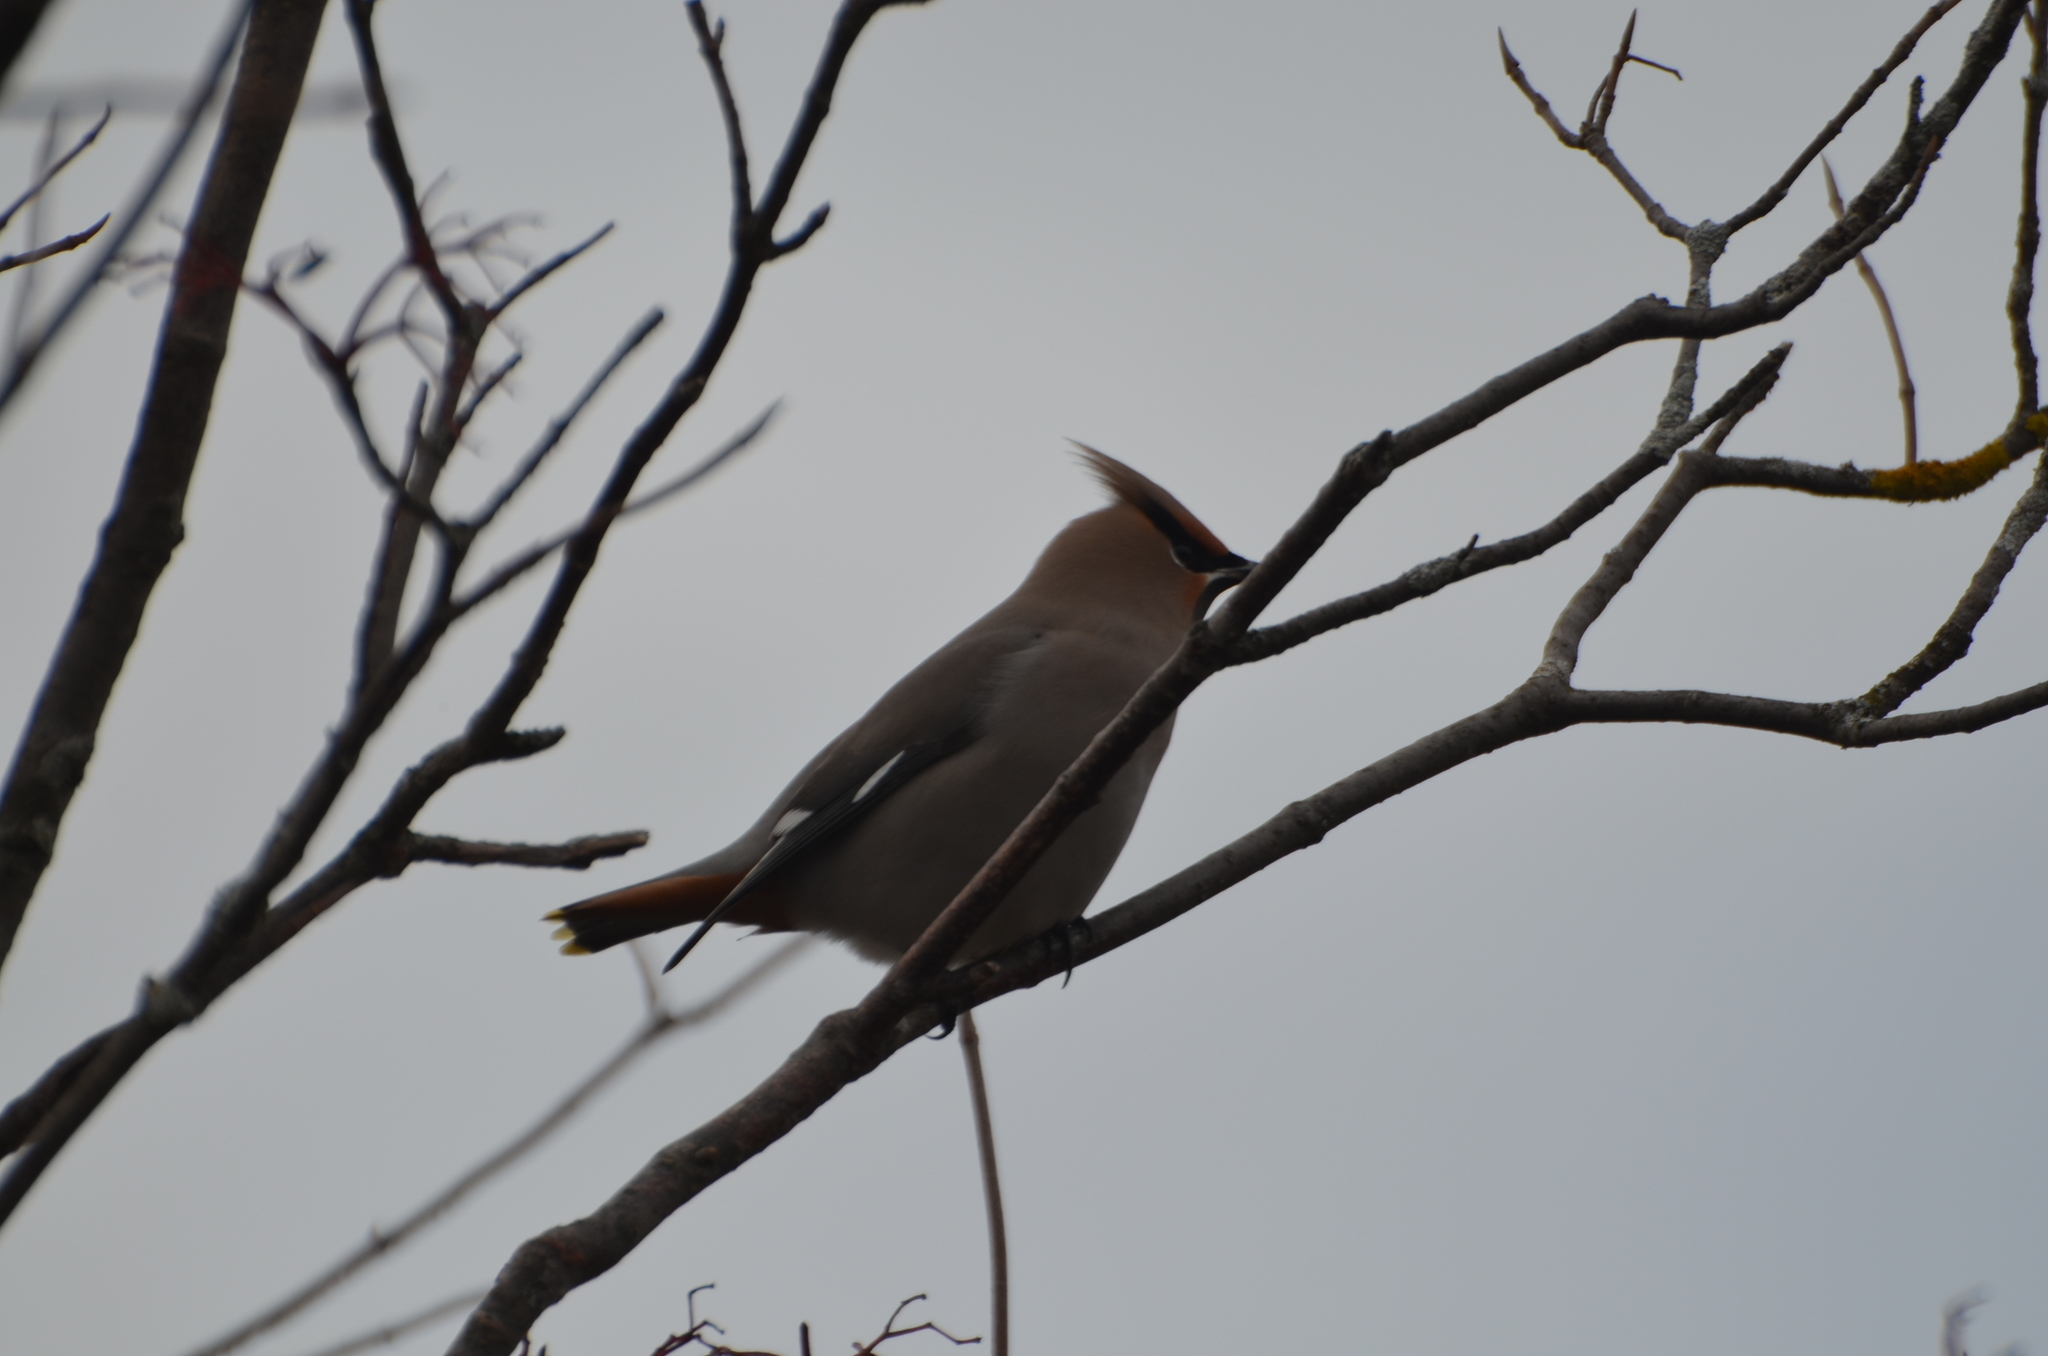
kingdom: Animalia
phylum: Chordata
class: Aves
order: Passeriformes
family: Bombycillidae
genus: Bombycilla
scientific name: Bombycilla garrulus
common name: Bohemian waxwing
